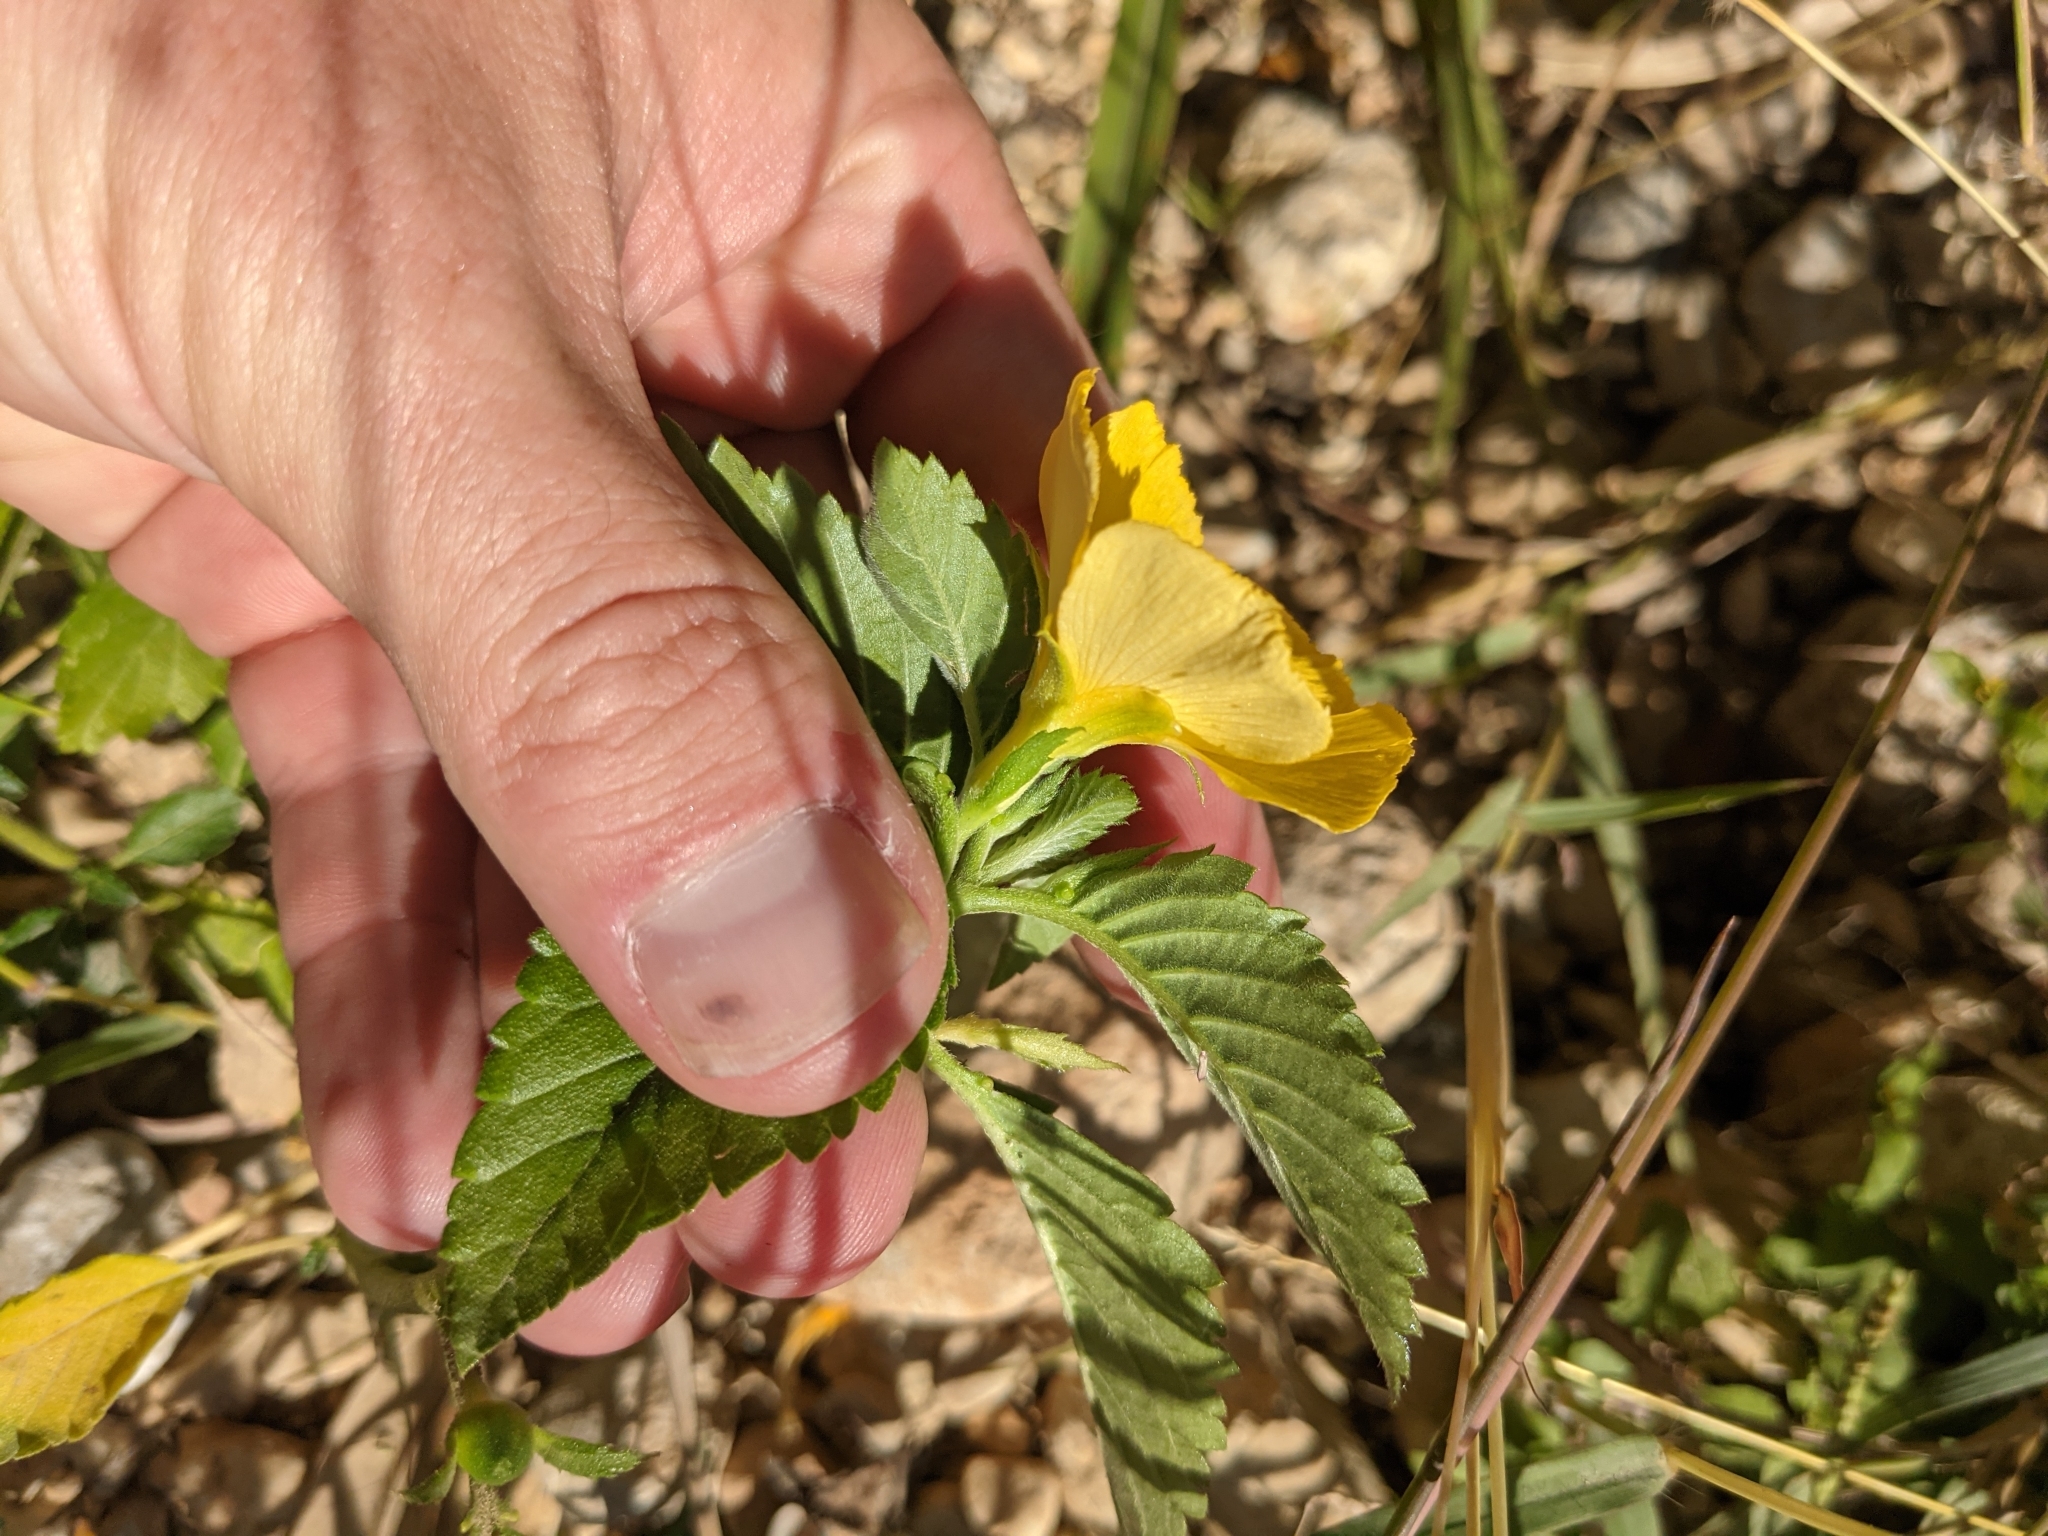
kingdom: Plantae
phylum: Tracheophyta
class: Magnoliopsida
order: Malpighiales
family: Turneraceae
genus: Turnera
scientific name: Turnera ulmifolia
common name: Ramgoat dashalong
